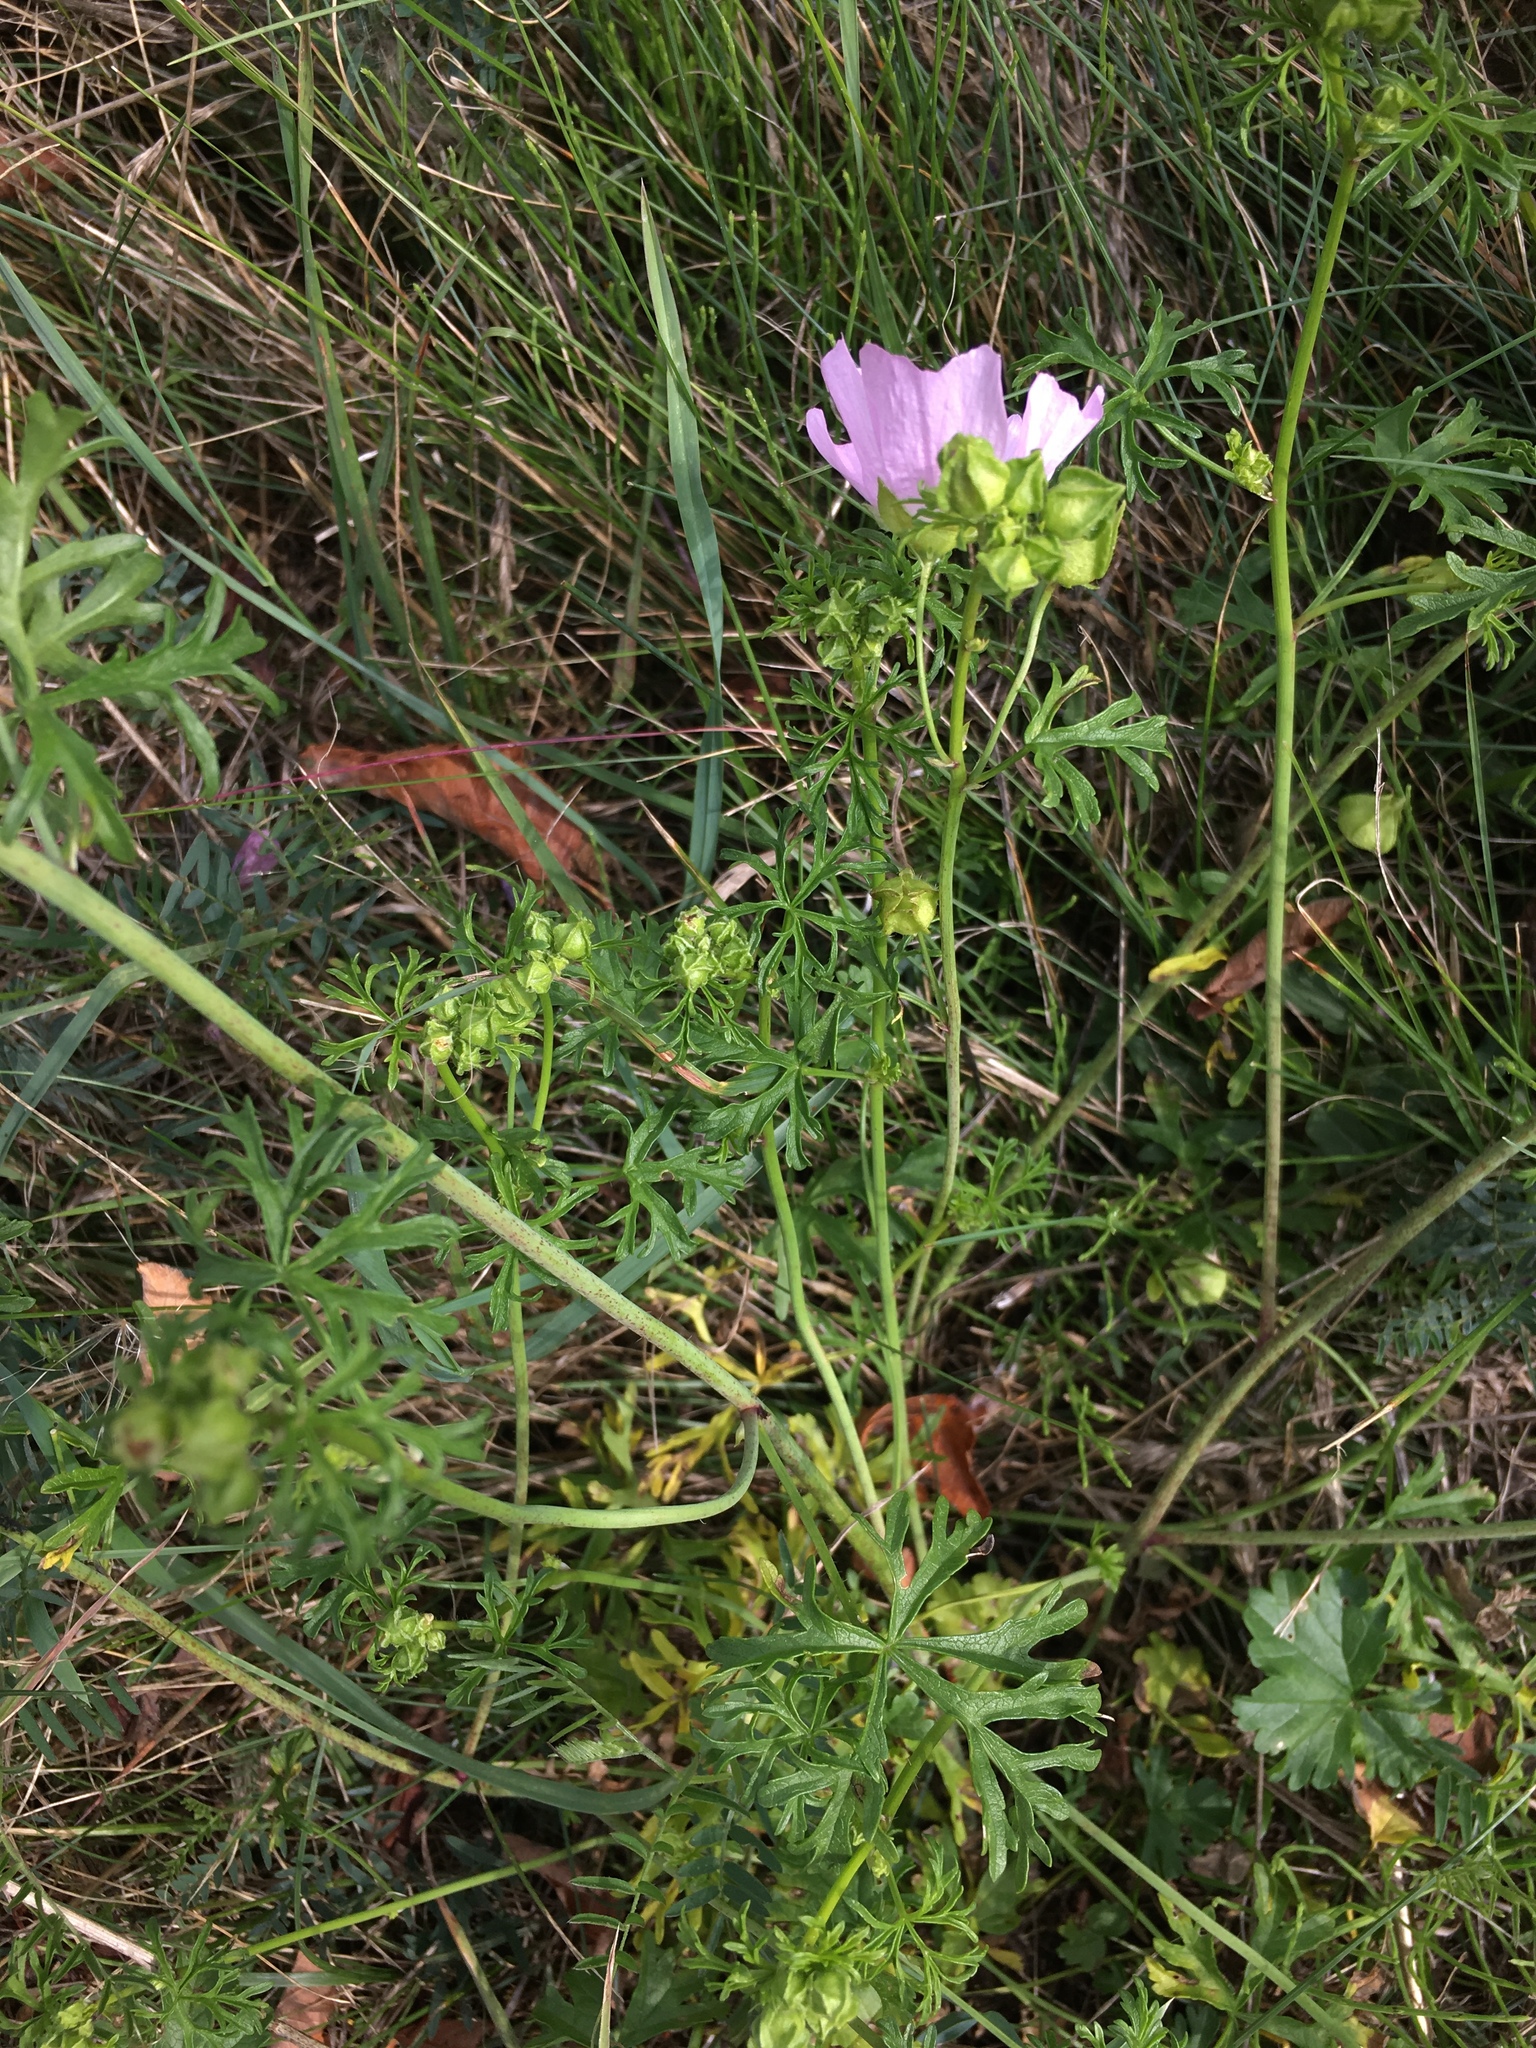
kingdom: Plantae
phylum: Tracheophyta
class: Magnoliopsida
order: Malvales
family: Malvaceae
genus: Malva
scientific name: Malva moschata
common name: Musk mallow
